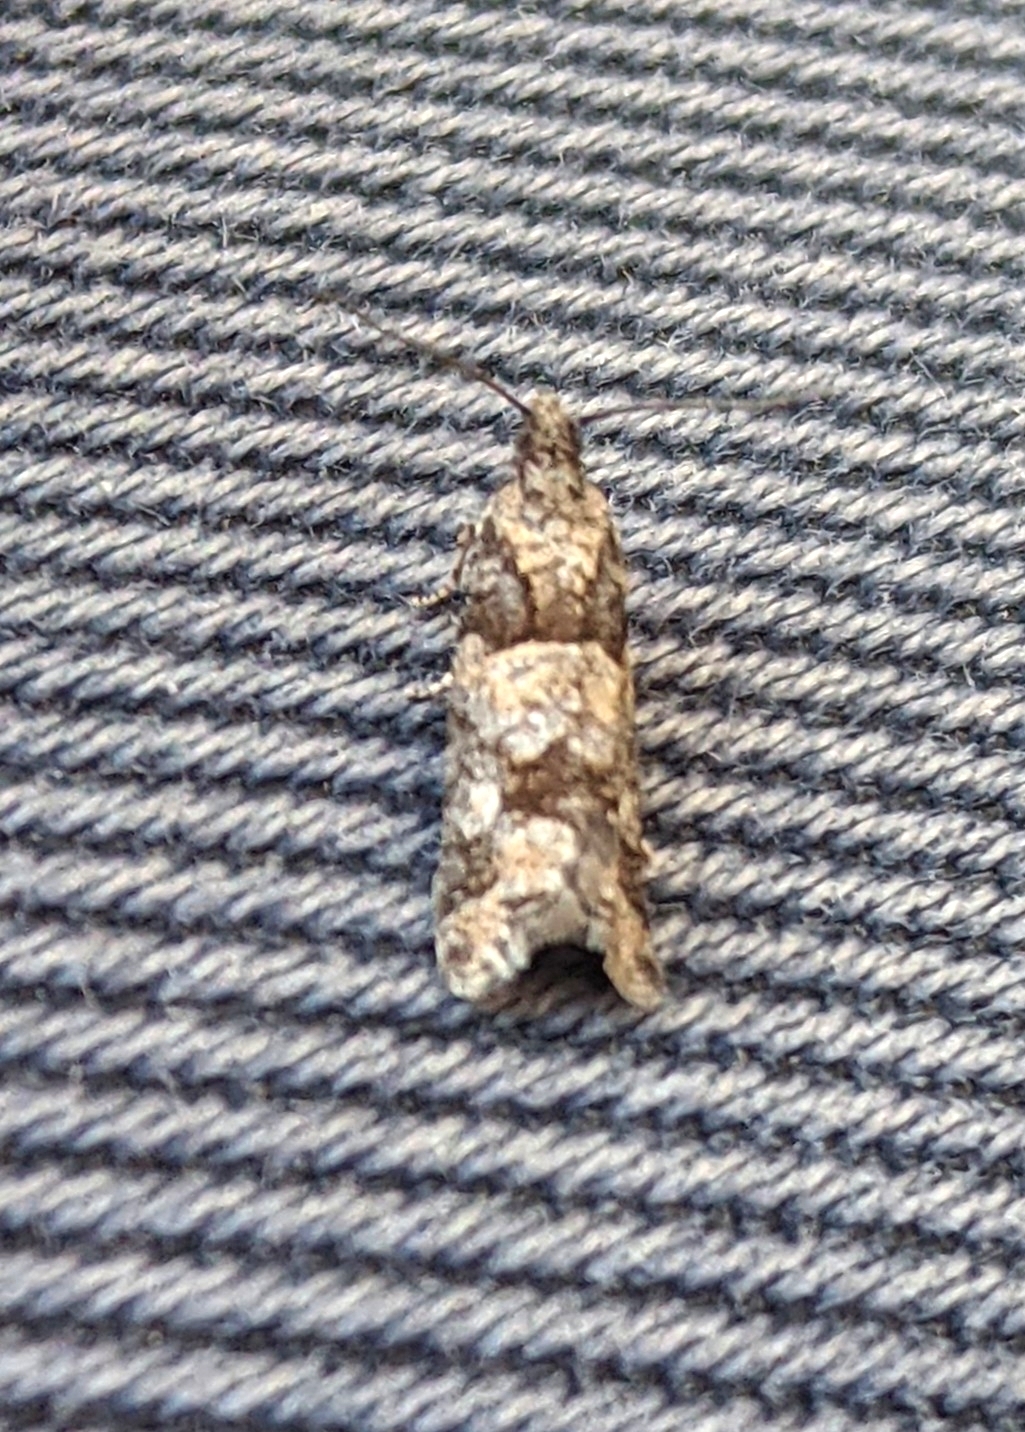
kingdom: Animalia
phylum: Arthropoda
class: Insecta
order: Lepidoptera
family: Tortricidae
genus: Epinotia
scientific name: Epinotia radicana
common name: Red-striped needleworm moth
